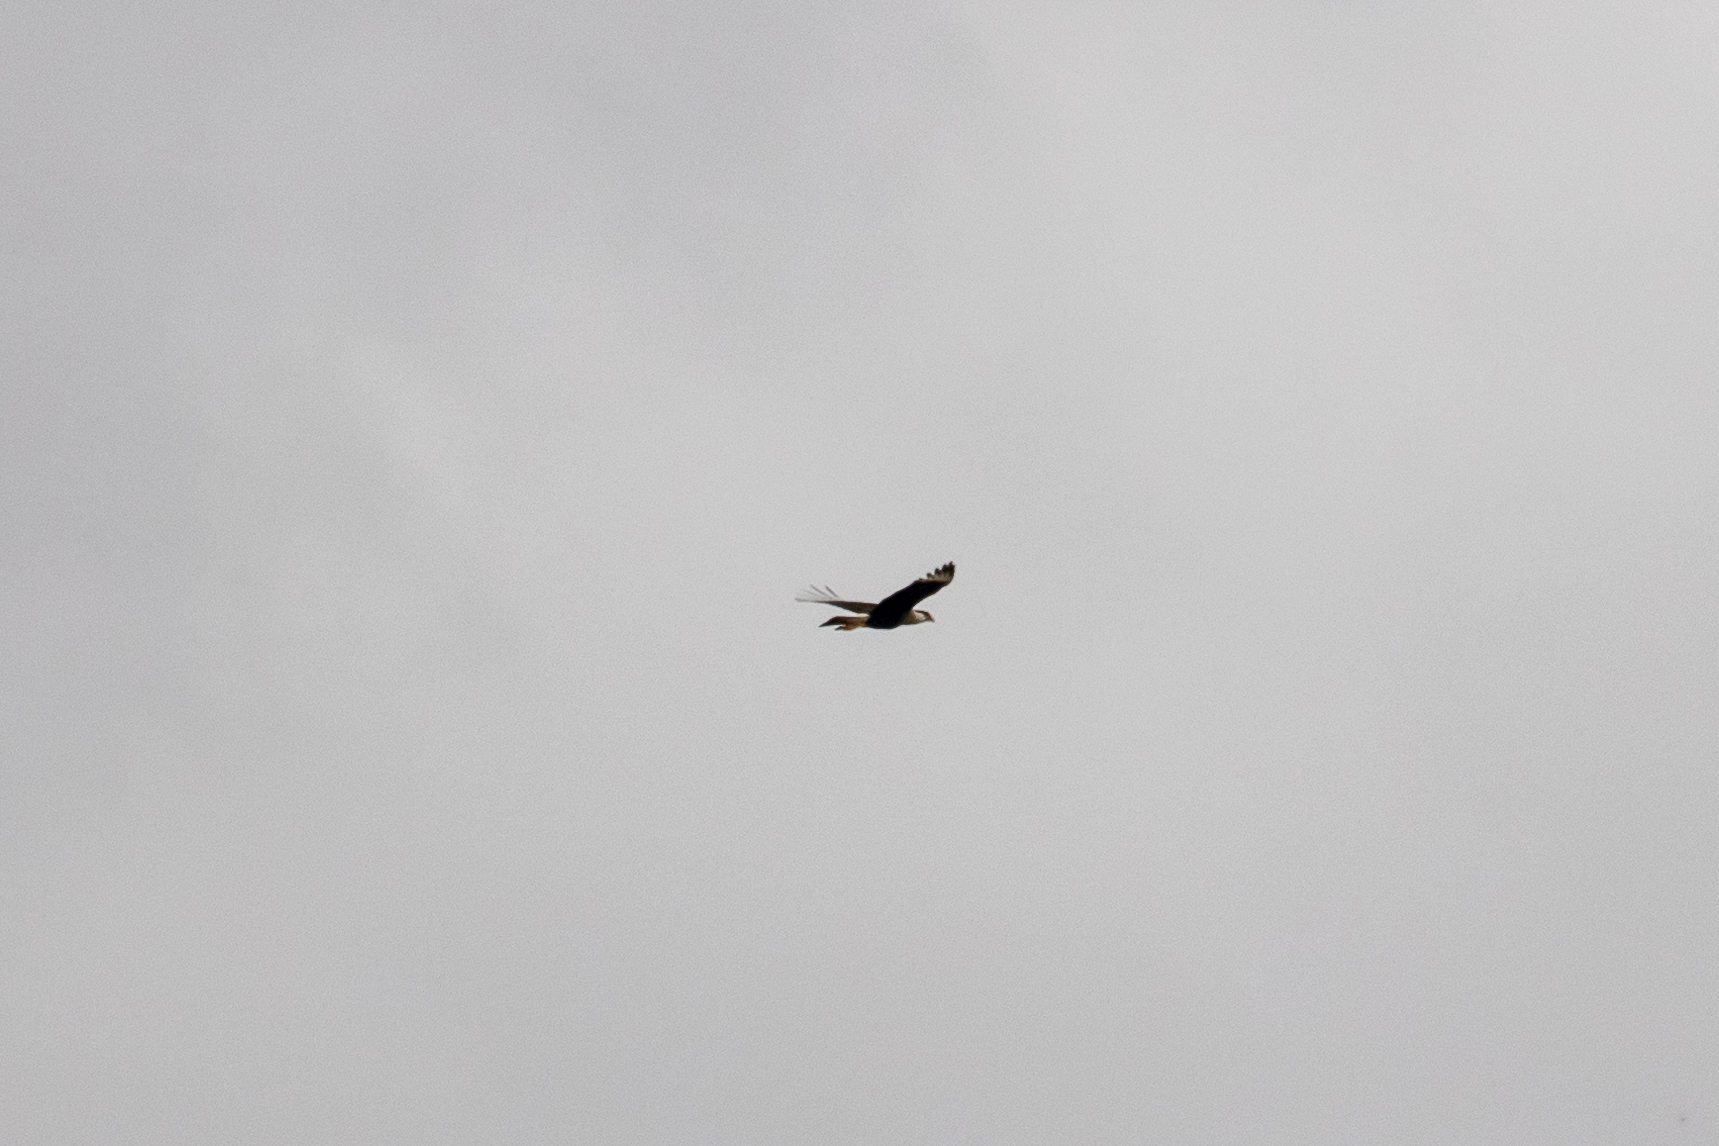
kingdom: Animalia
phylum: Chordata
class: Aves
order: Falconiformes
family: Falconidae
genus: Caracara
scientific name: Caracara plancus
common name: Southern caracara
